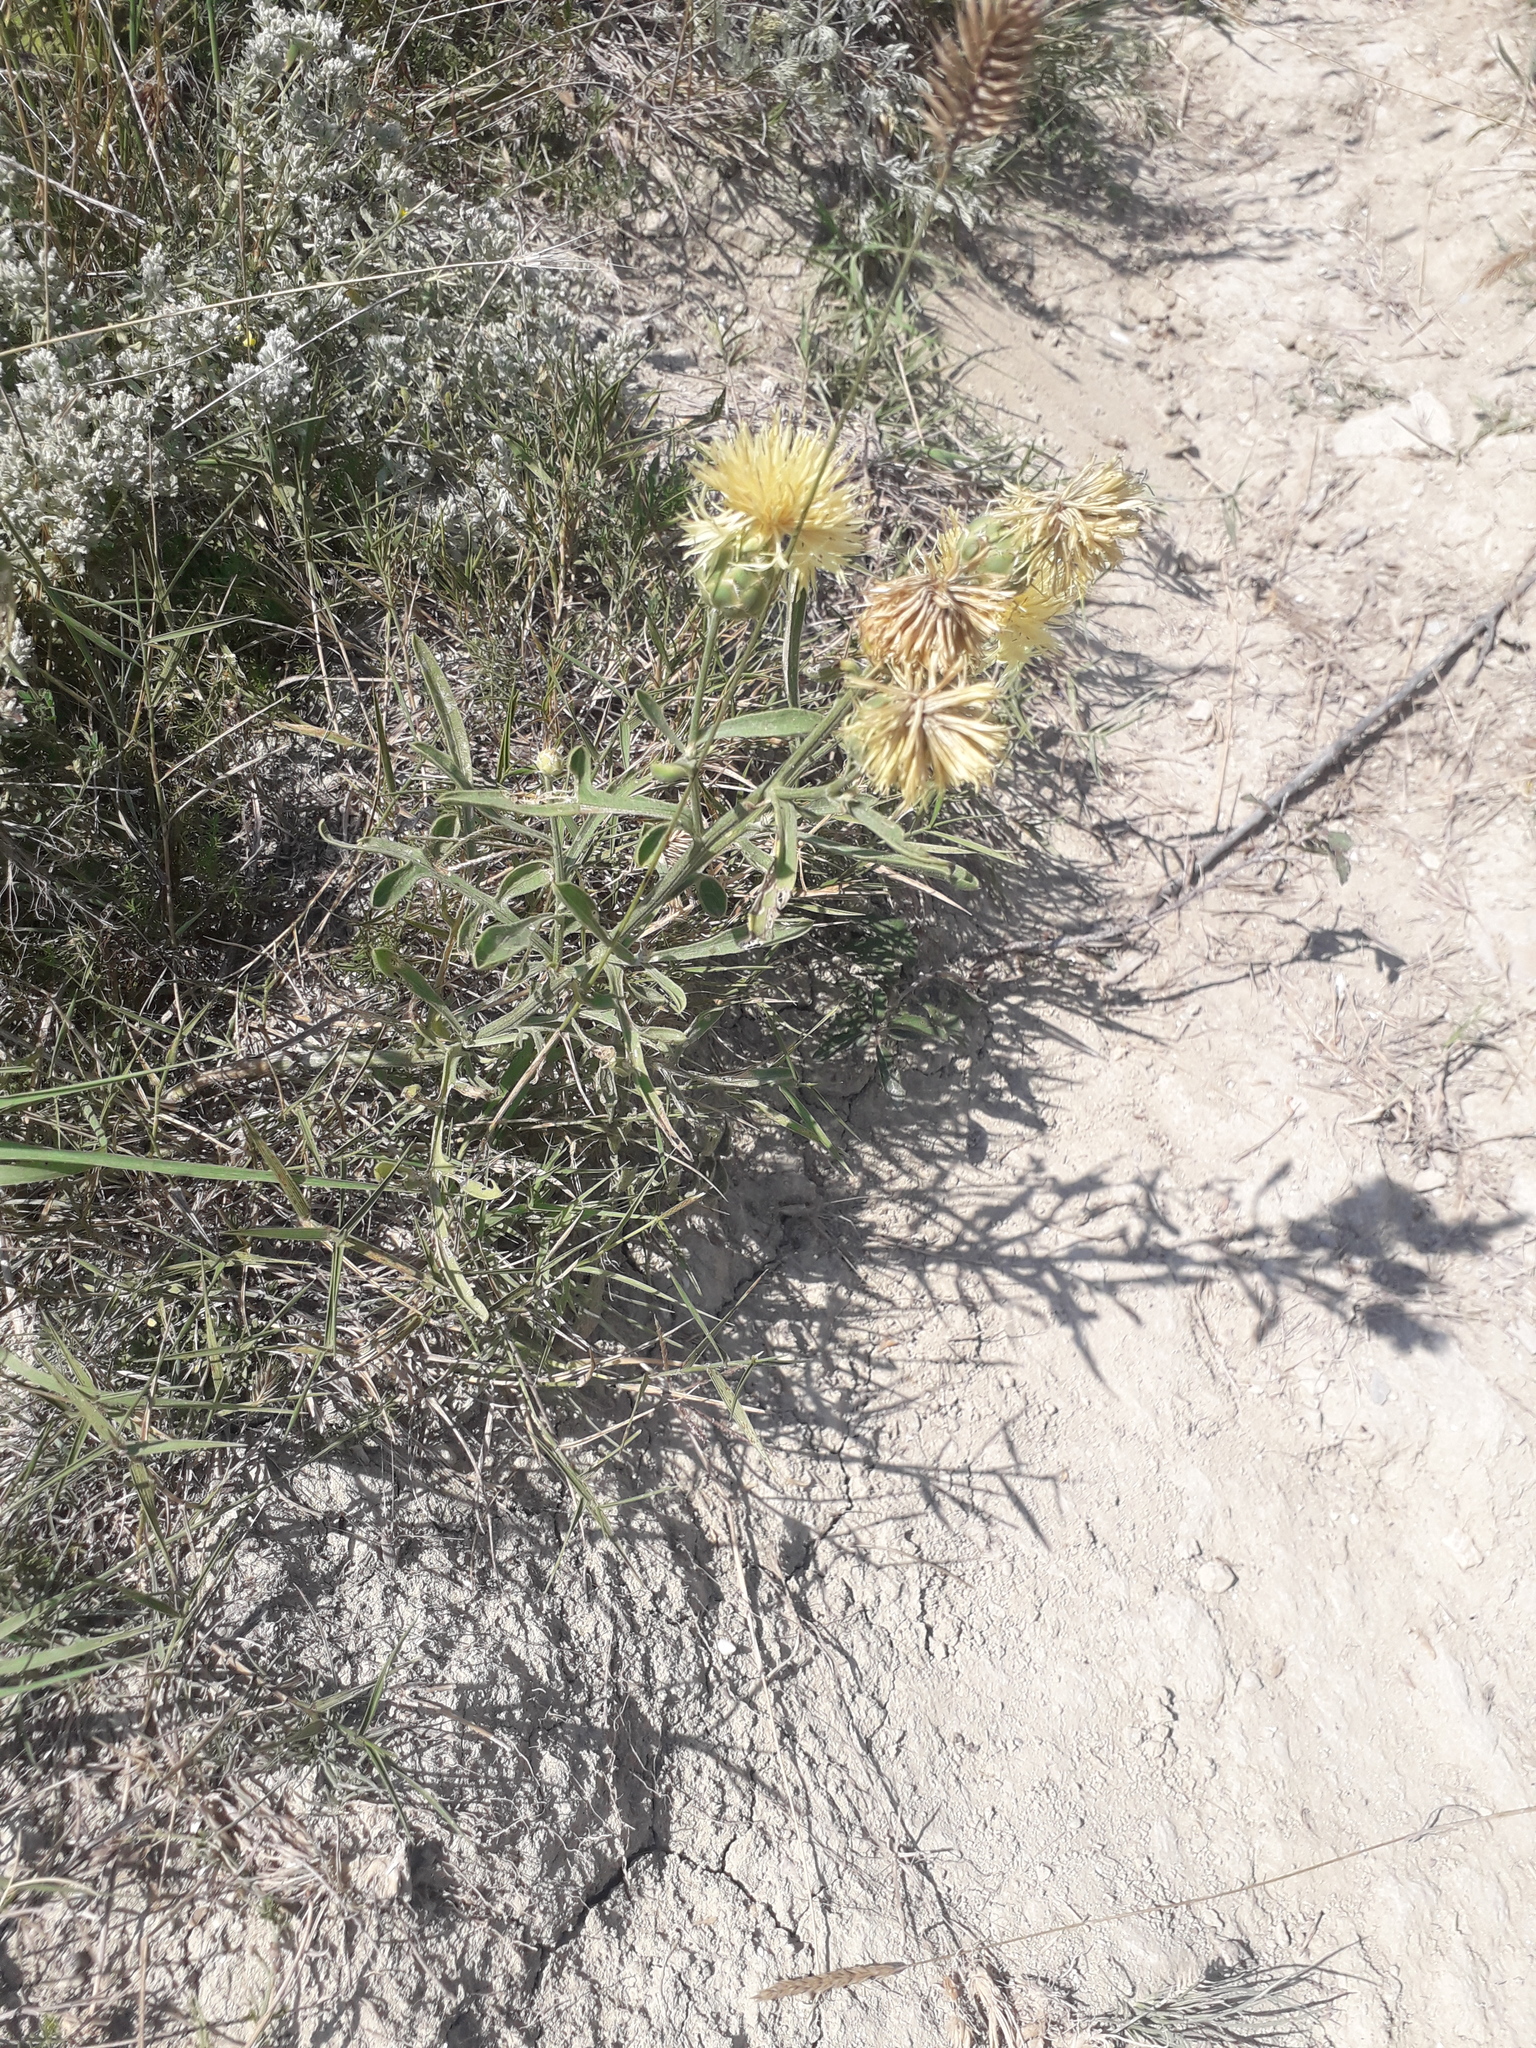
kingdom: Plantae
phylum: Tracheophyta
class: Magnoliopsida
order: Asterales
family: Asteraceae
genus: Centaurea
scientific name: Centaurea salonitana
